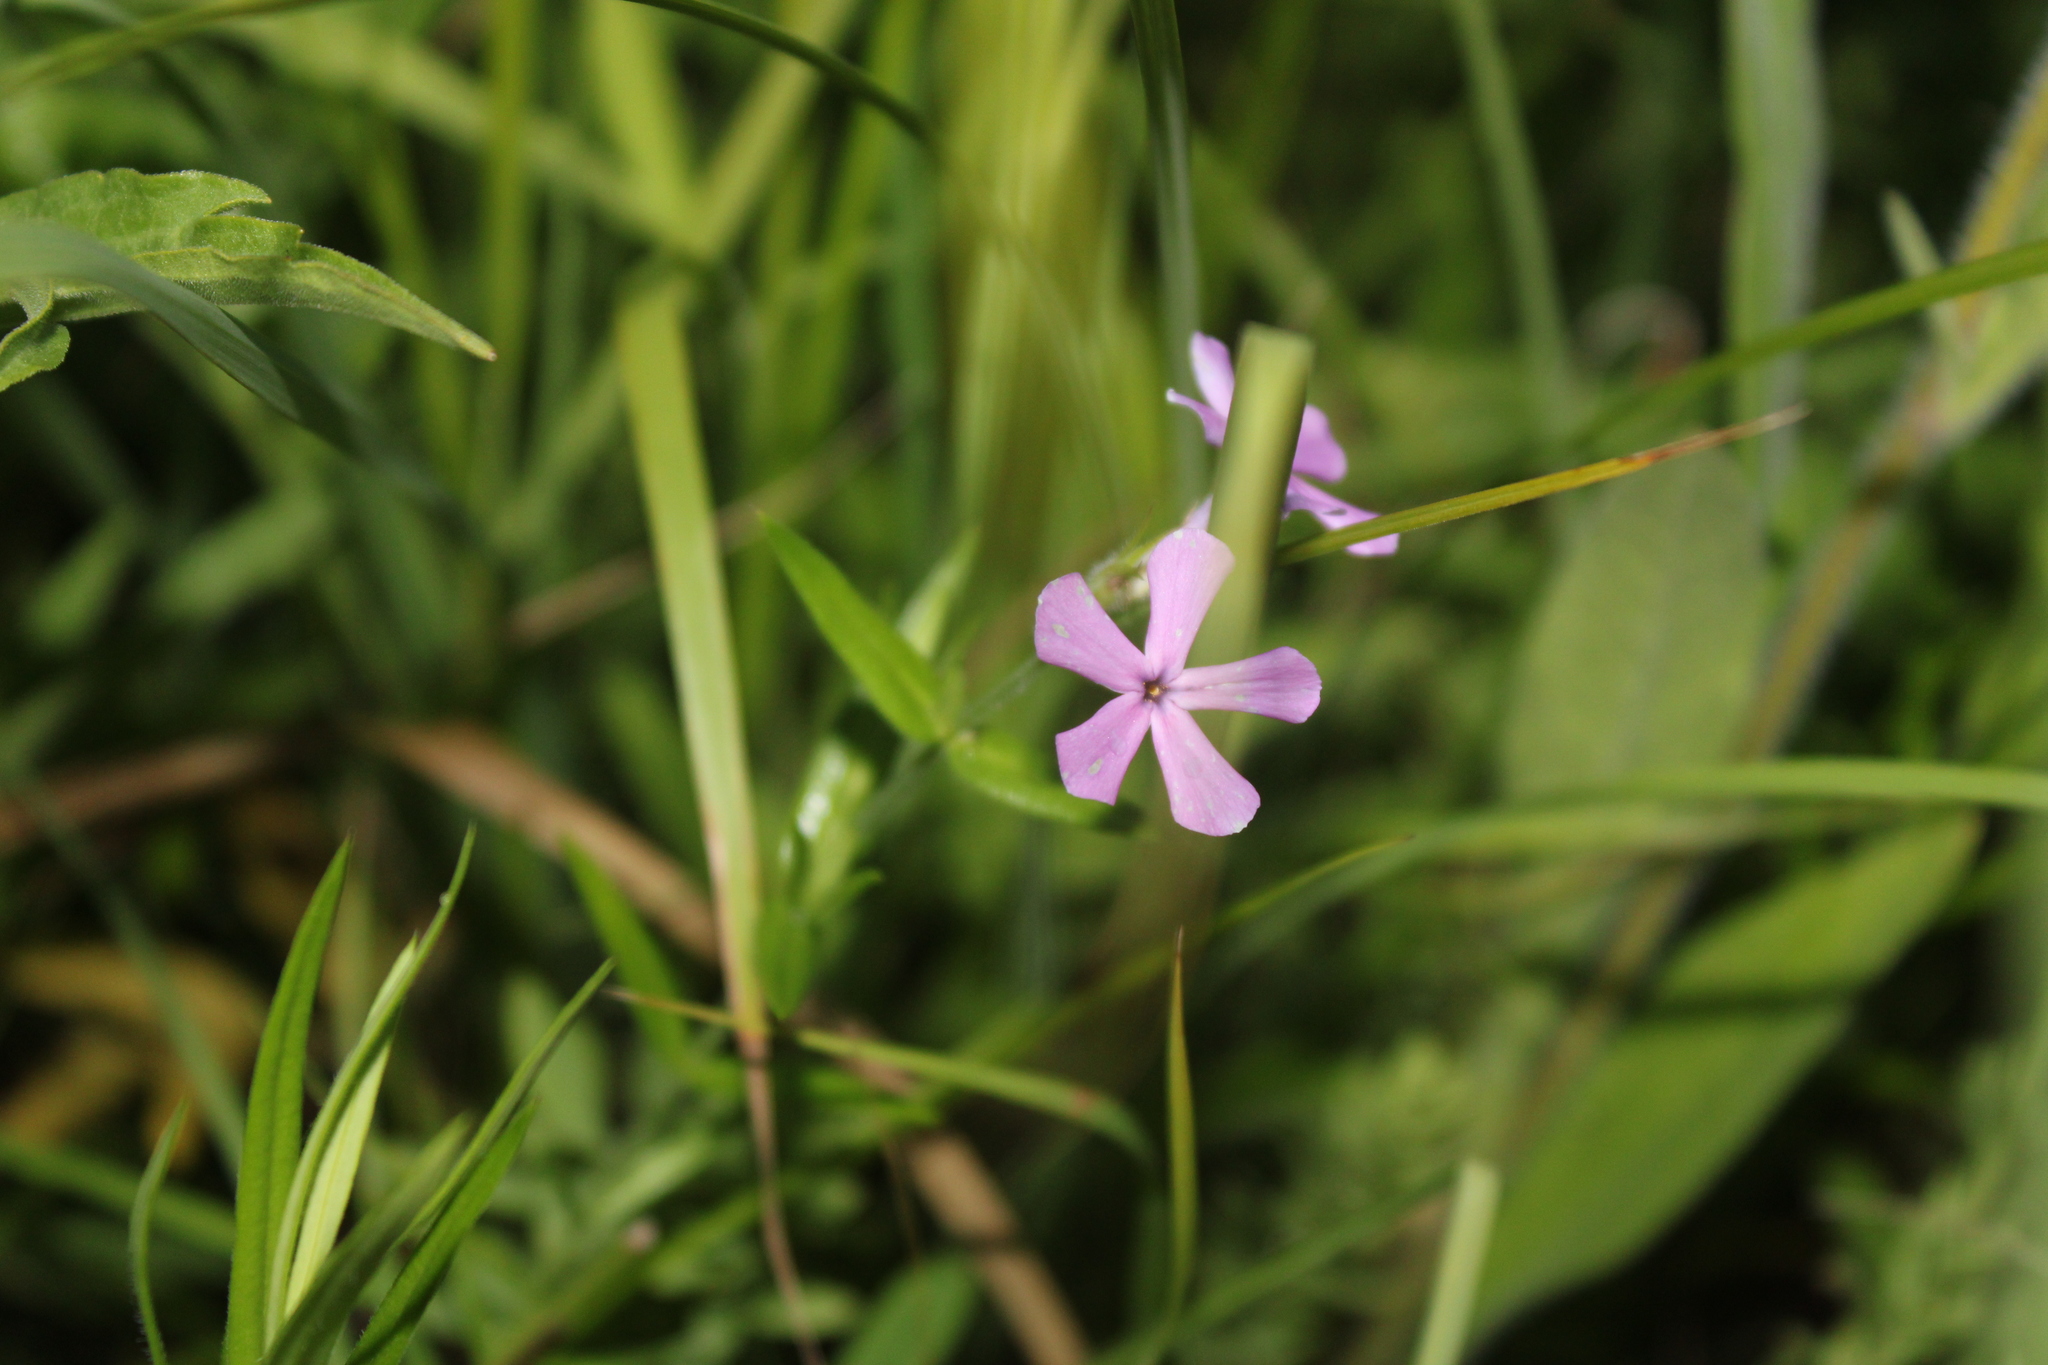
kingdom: Plantae
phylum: Tracheophyta
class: Magnoliopsida
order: Ericales
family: Polemoniaceae
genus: Phlox
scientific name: Phlox pilosa
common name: Prairie phlox
